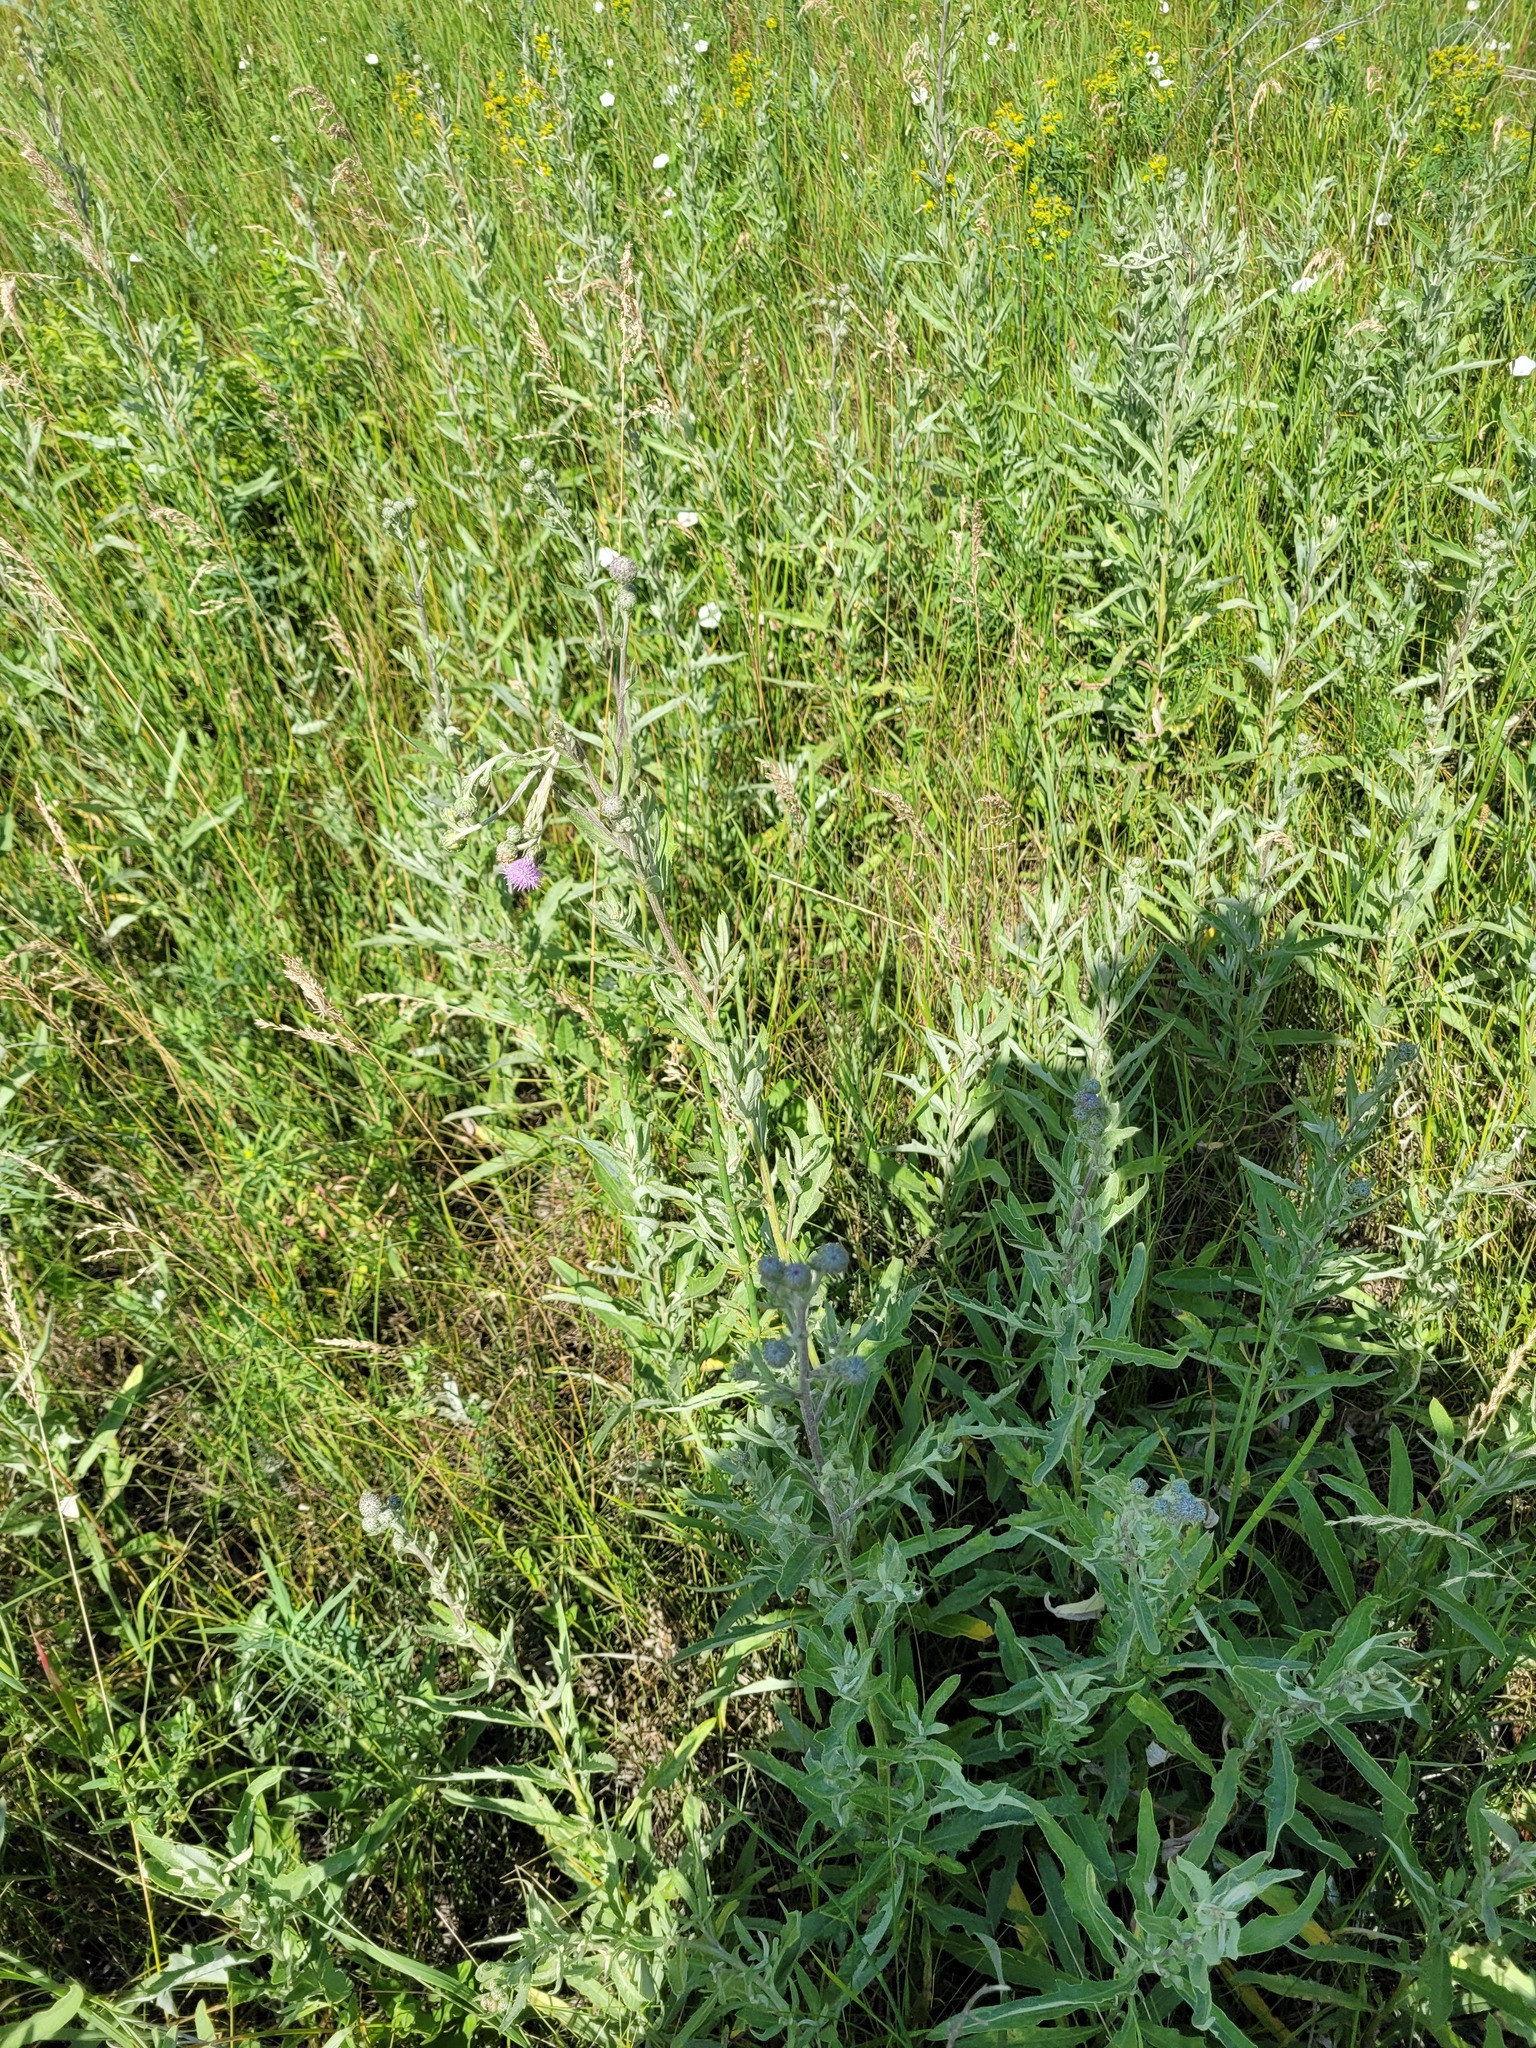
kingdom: Plantae
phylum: Tracheophyta
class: Magnoliopsida
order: Asterales
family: Asteraceae
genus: Cirsium
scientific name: Cirsium arvense
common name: Creeping thistle
